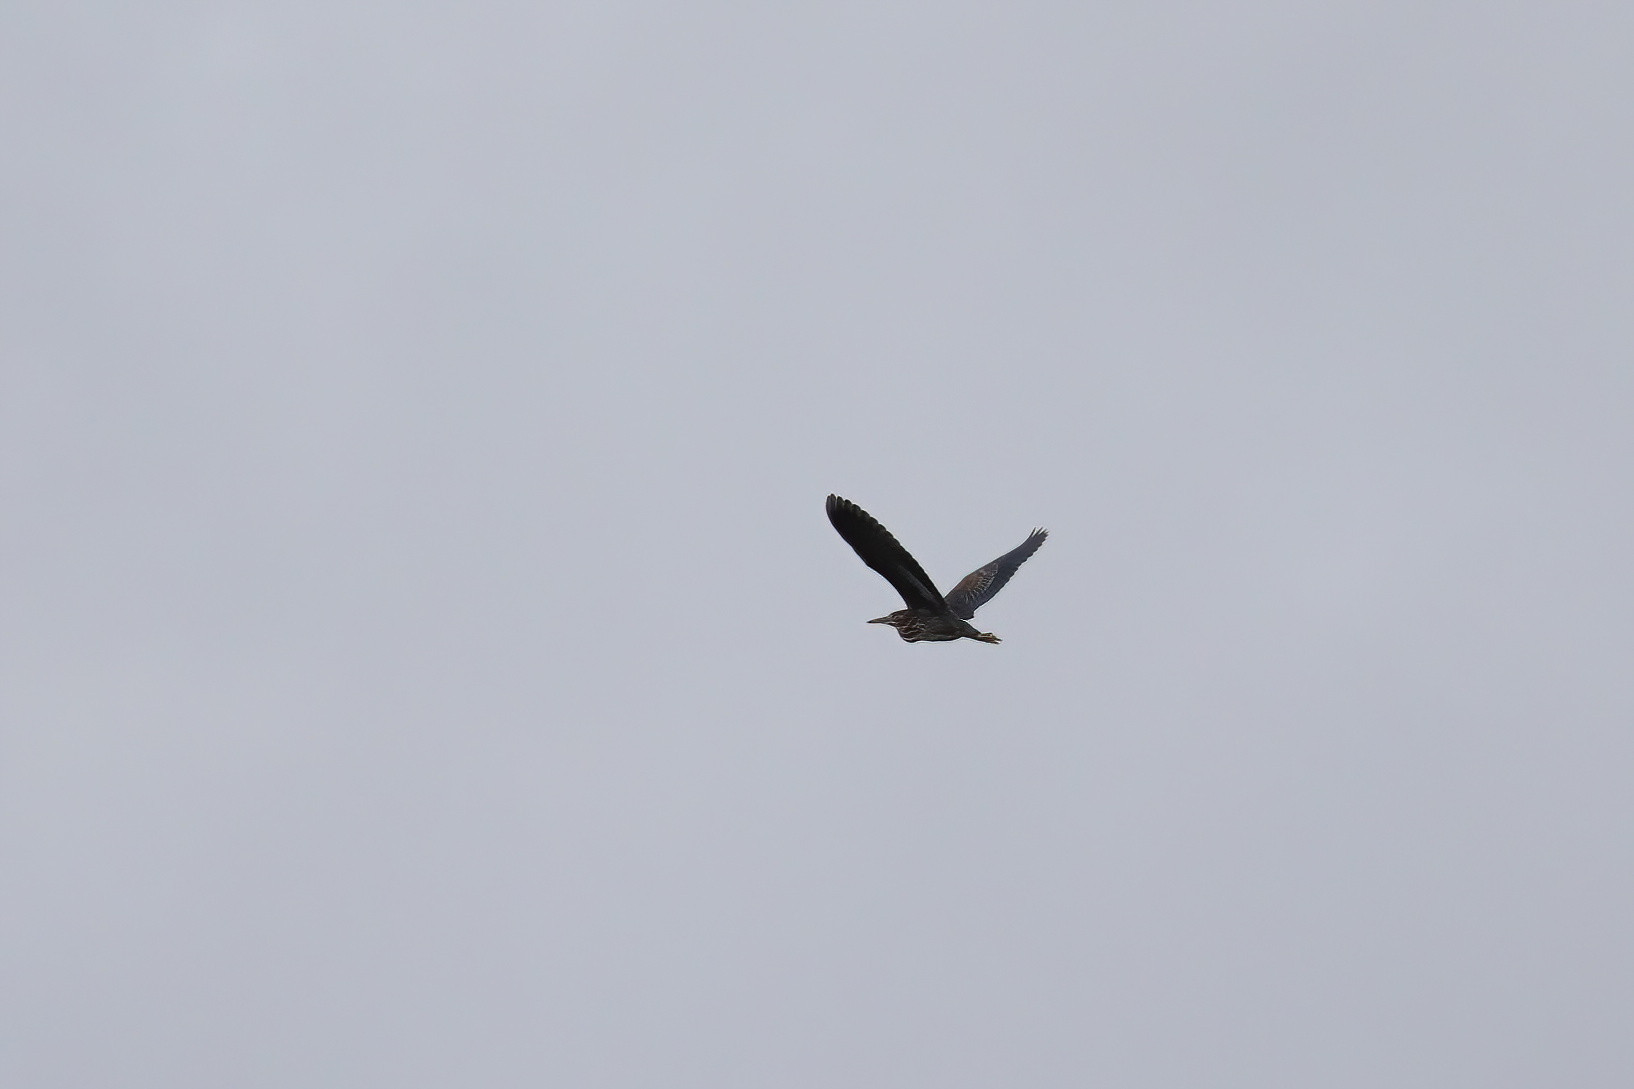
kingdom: Animalia
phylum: Chordata
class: Aves
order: Pelecaniformes
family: Ardeidae
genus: Butorides
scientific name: Butorides virescens
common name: Green heron
